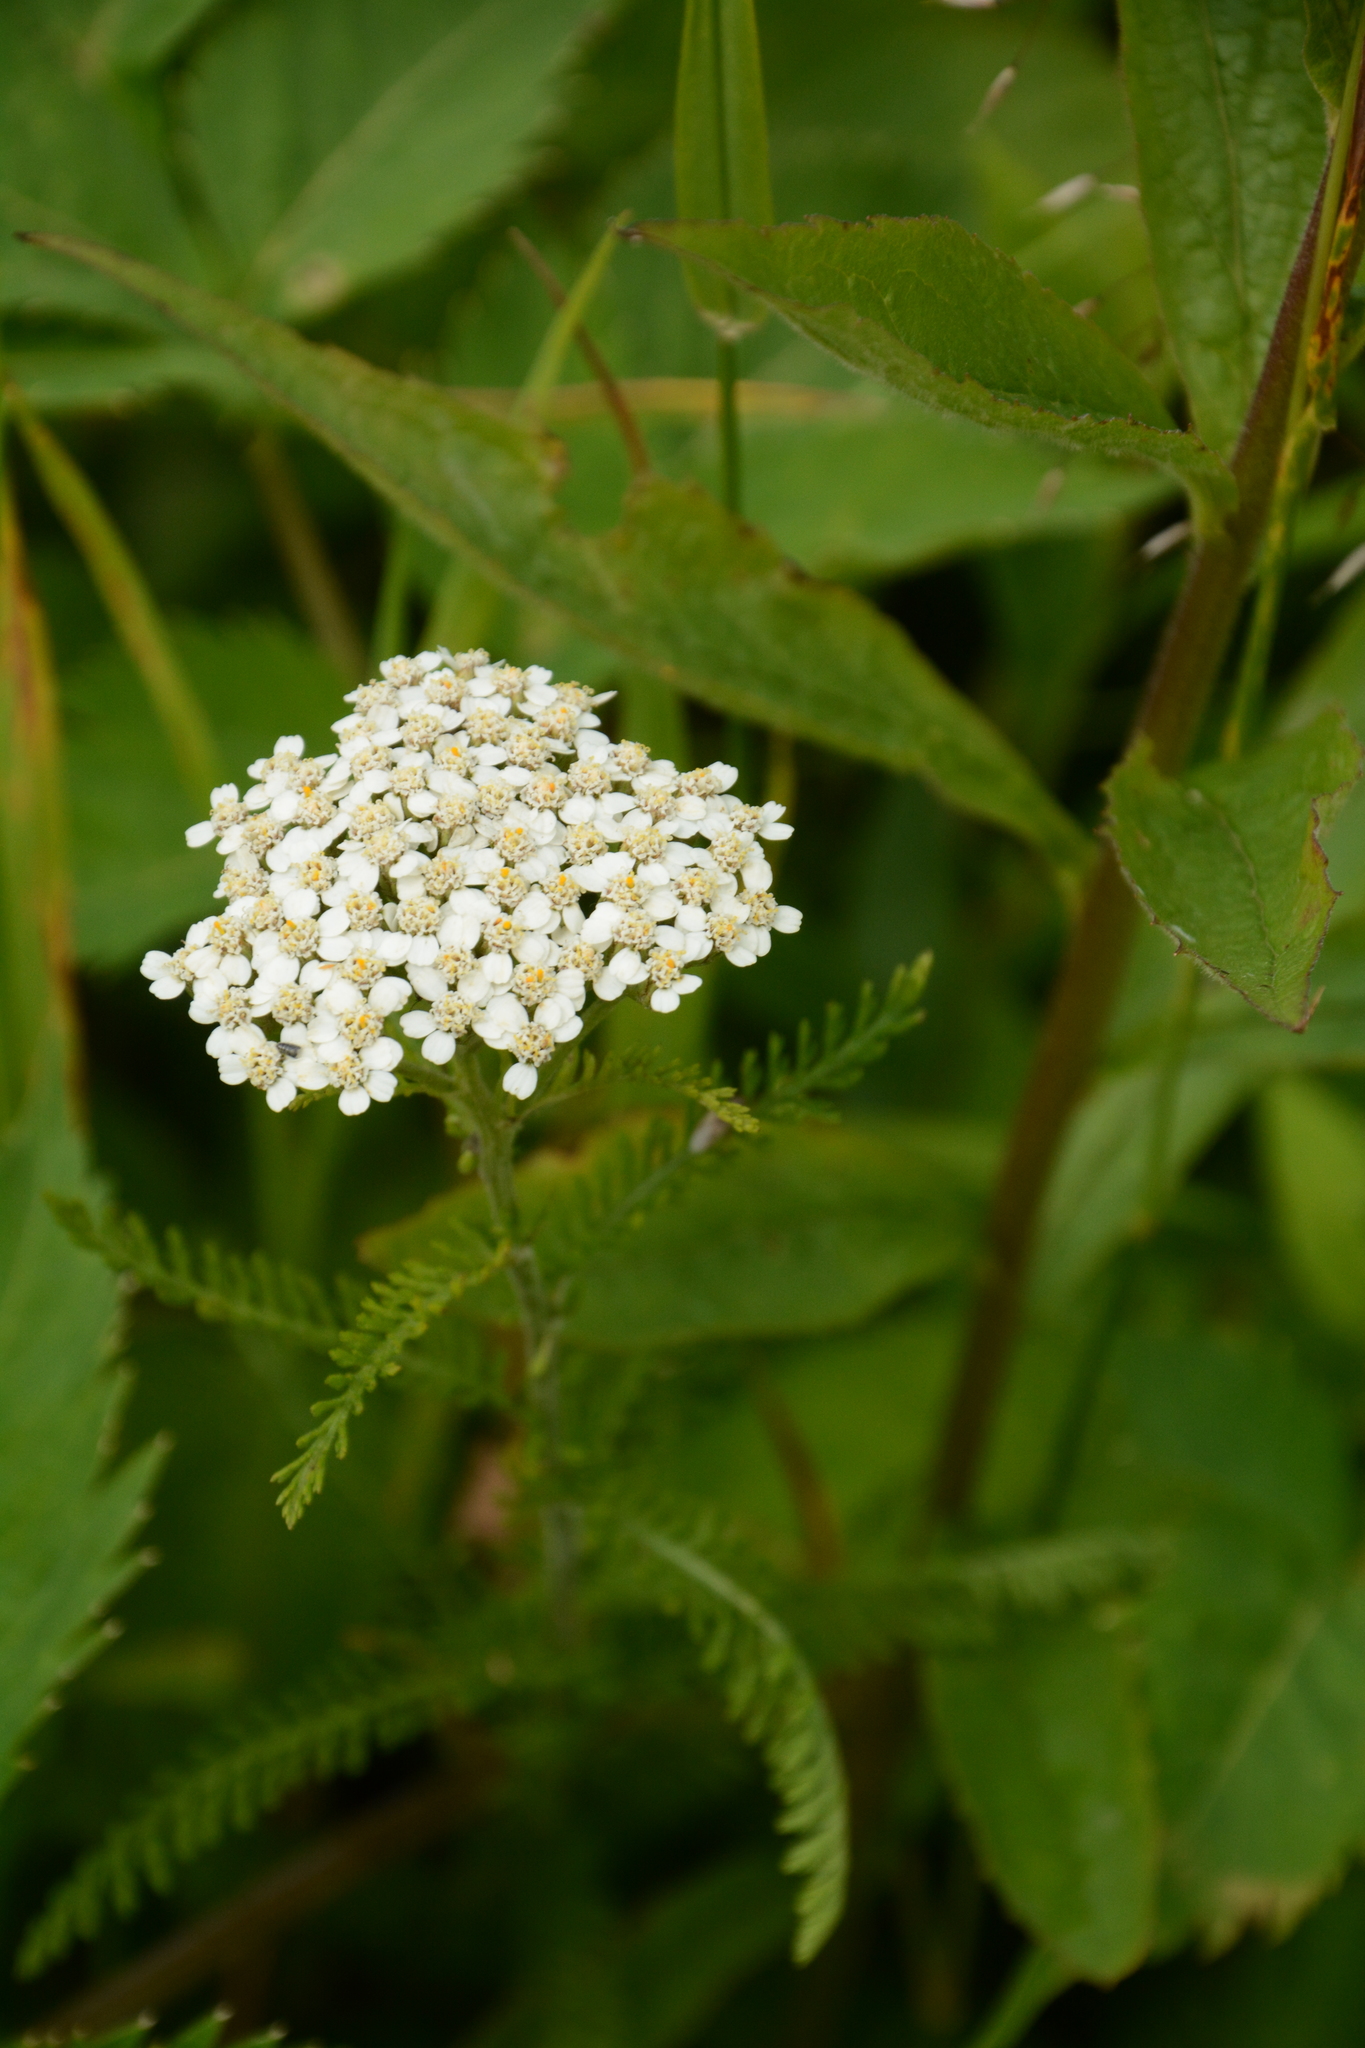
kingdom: Plantae
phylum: Tracheophyta
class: Magnoliopsida
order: Asterales
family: Asteraceae
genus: Achillea
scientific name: Achillea millefolium
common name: Yarrow
